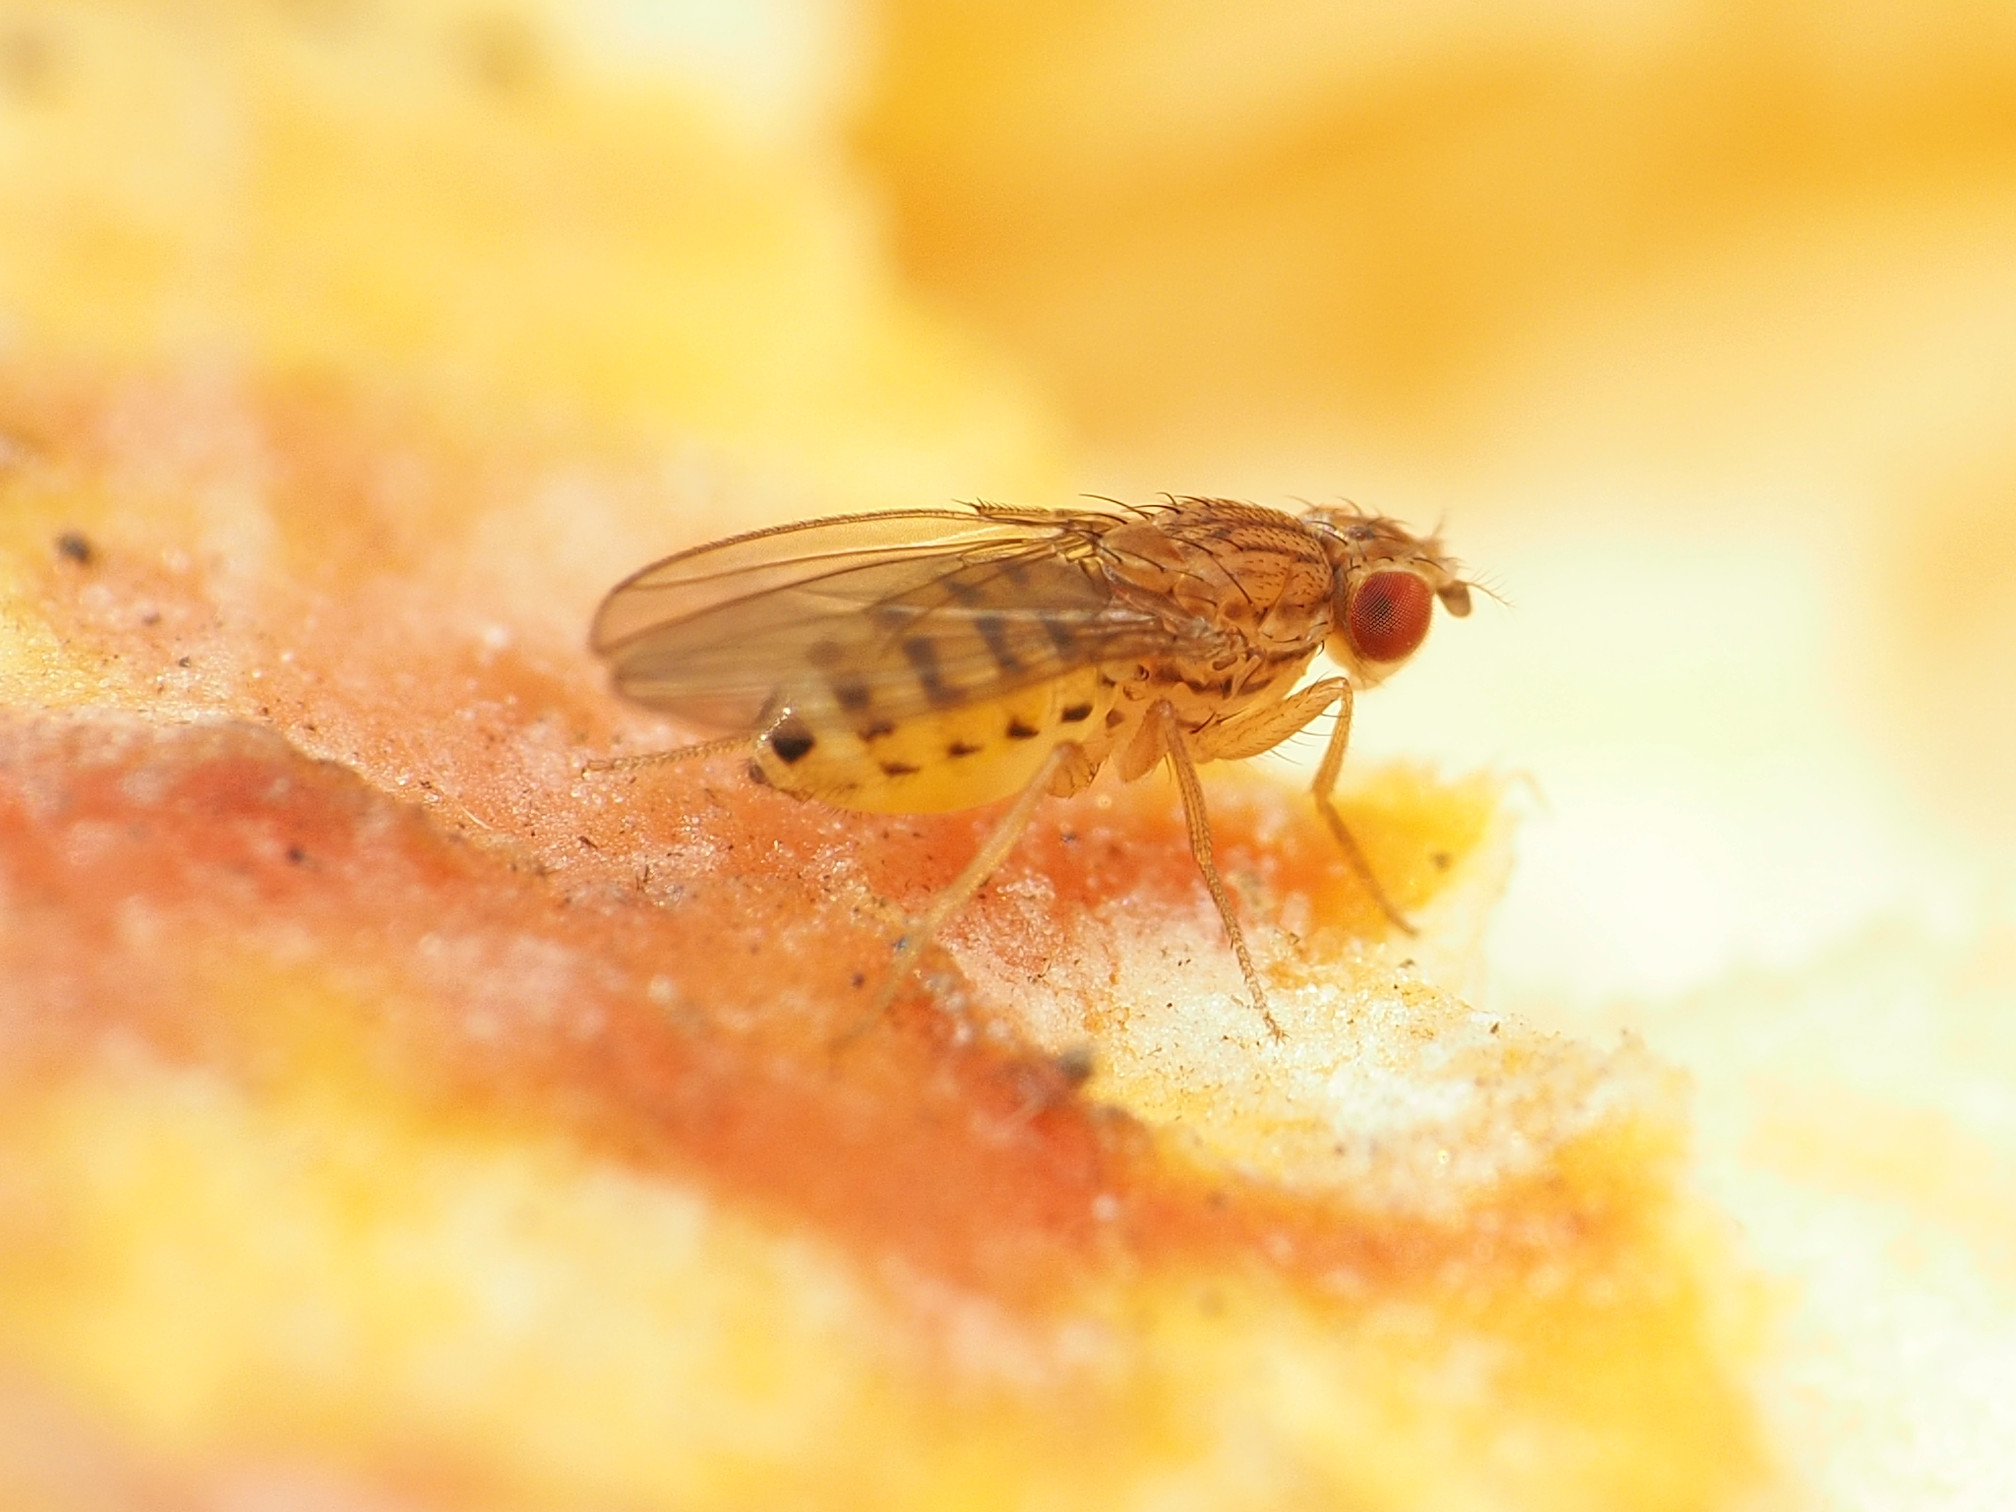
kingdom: Animalia
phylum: Arthropoda
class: Insecta
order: Diptera
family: Drosophilidae
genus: Drosophila
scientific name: Drosophila busckii
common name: Pomace fly
